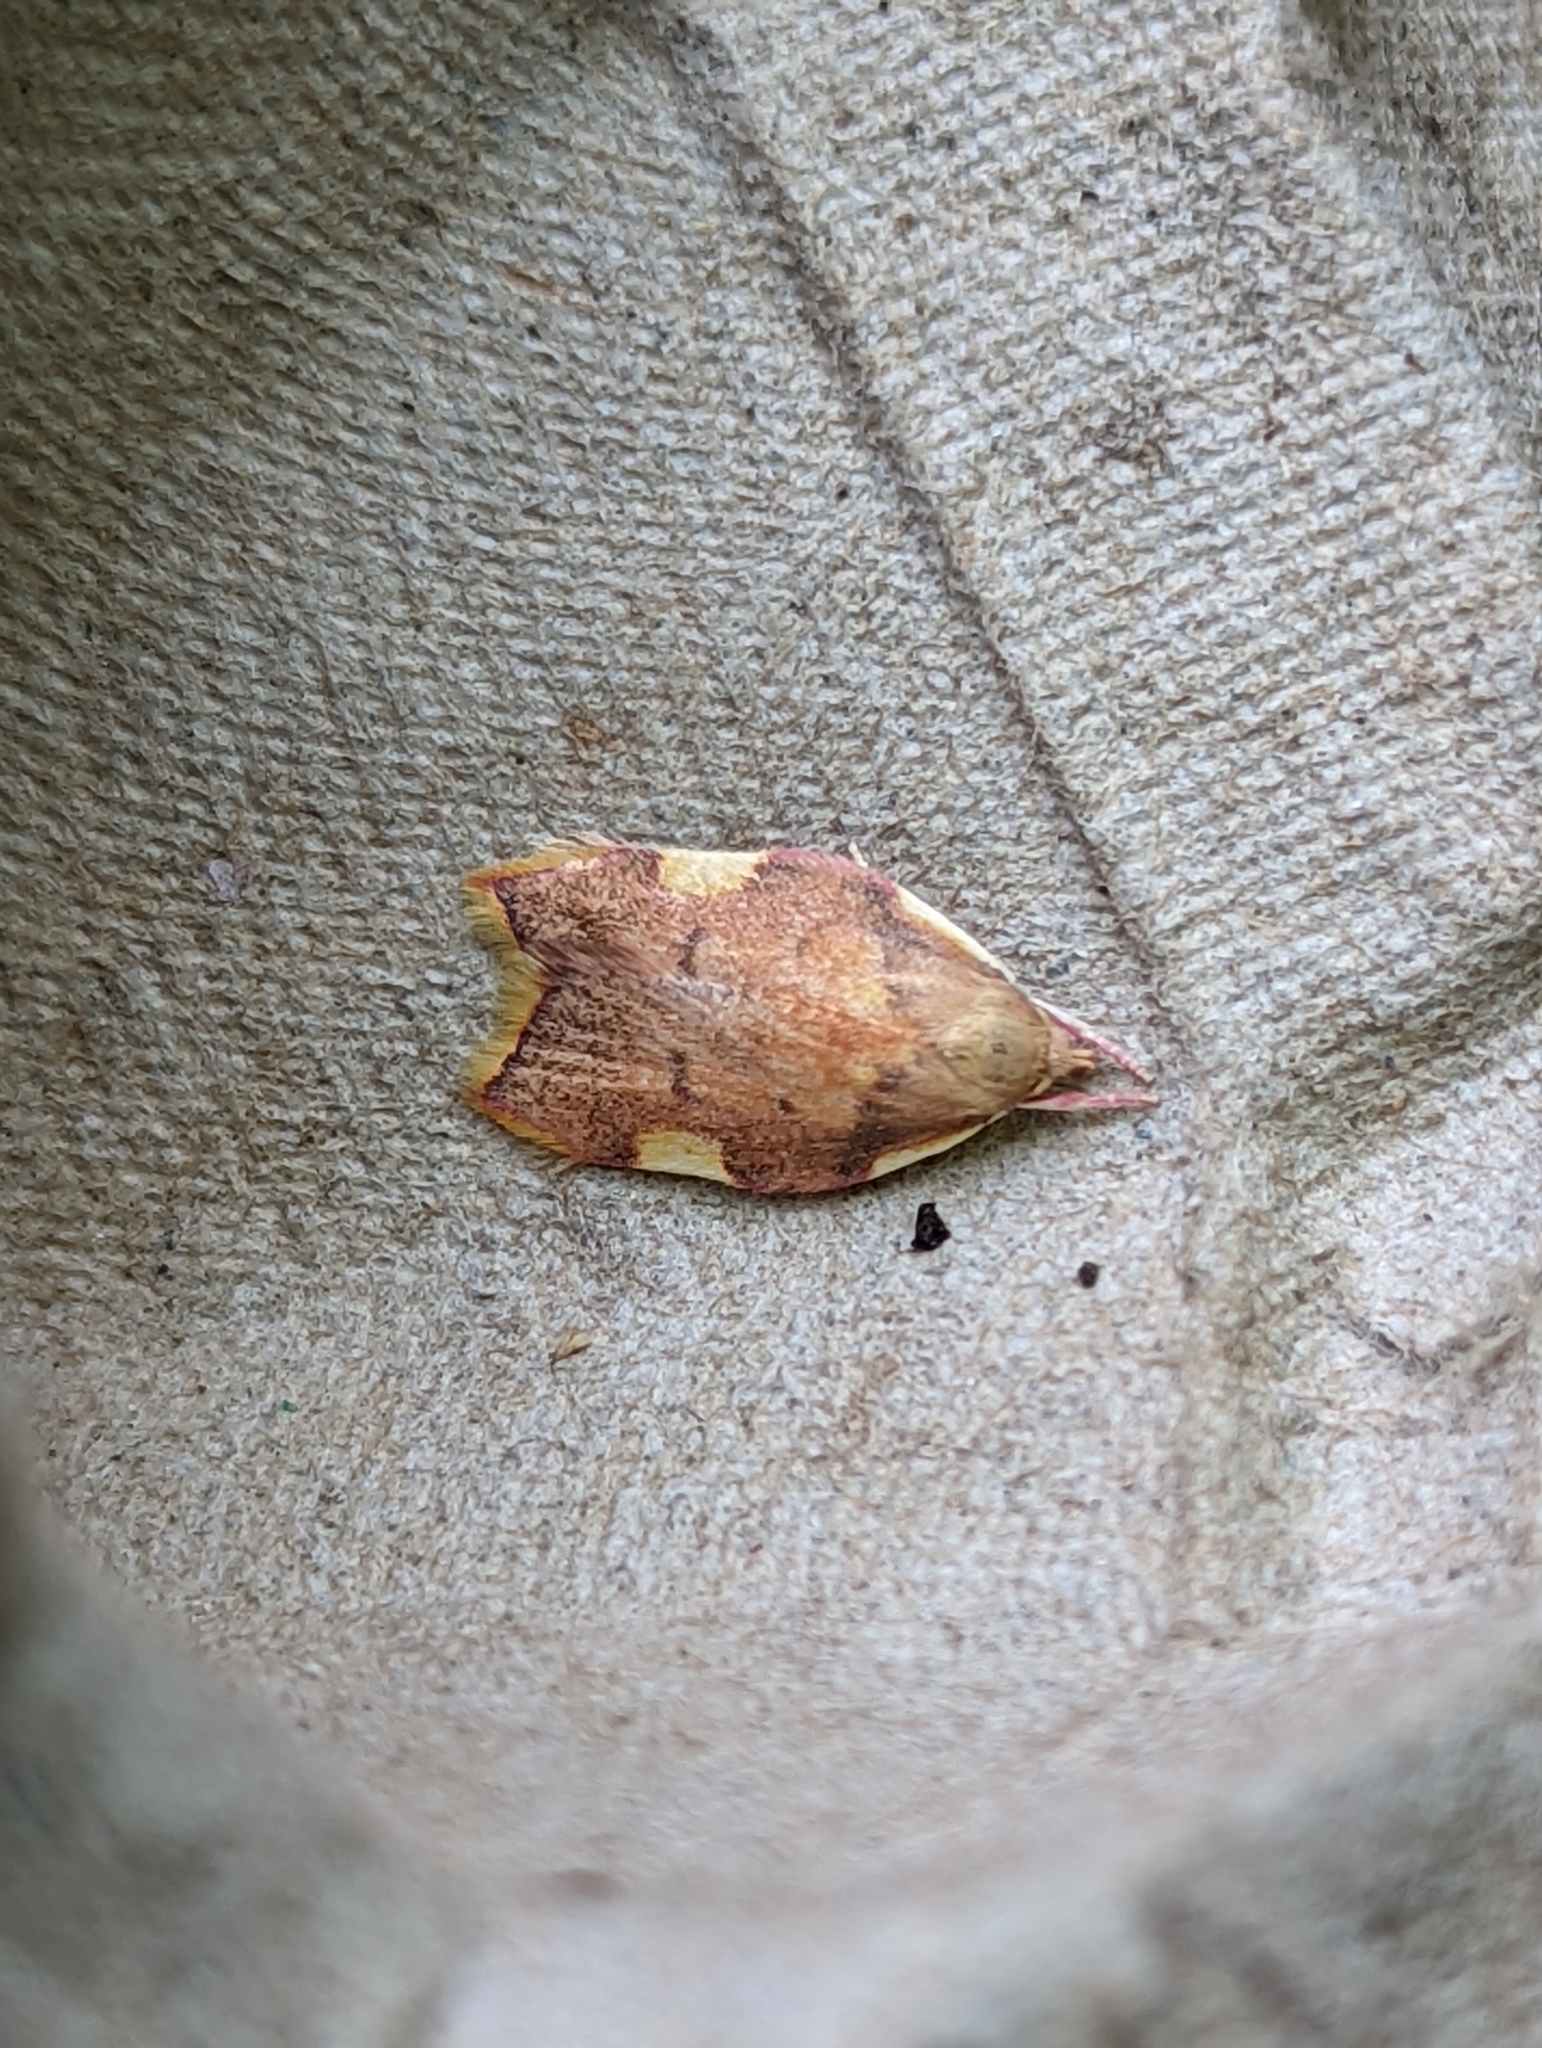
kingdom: Animalia
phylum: Arthropoda
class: Insecta
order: Lepidoptera
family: Peleopodidae
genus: Carcina
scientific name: Carcina quercana
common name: Moth
